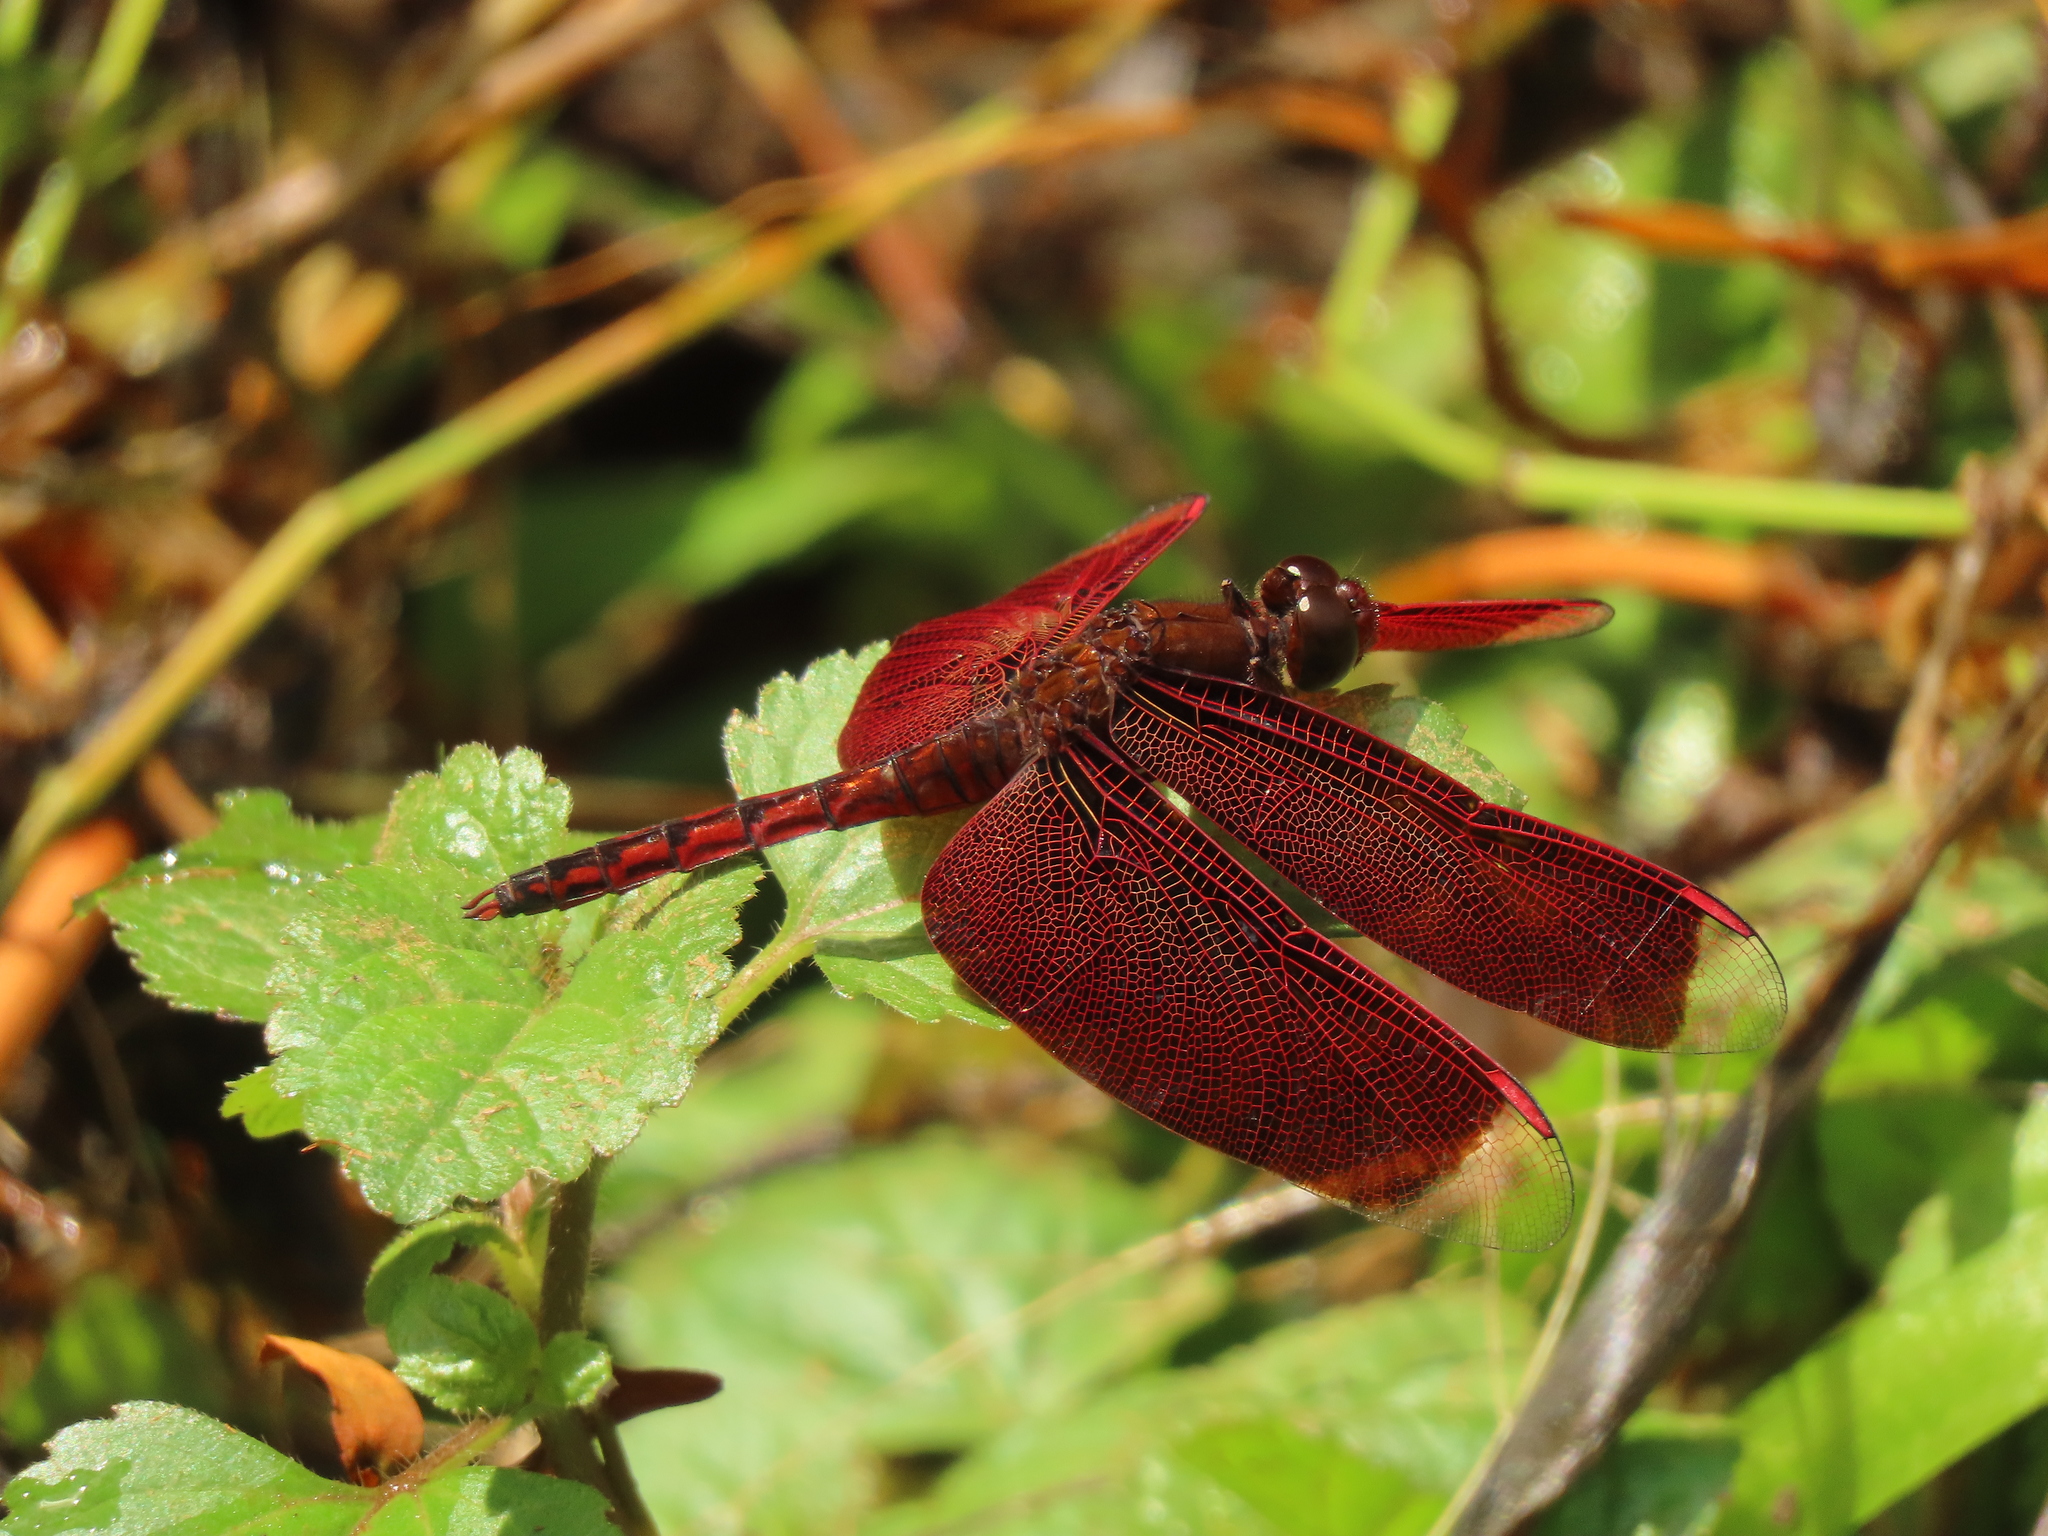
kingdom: Animalia
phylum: Arthropoda
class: Insecta
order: Odonata
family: Libellulidae
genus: Neurothemis
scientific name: Neurothemis taiwanensis
